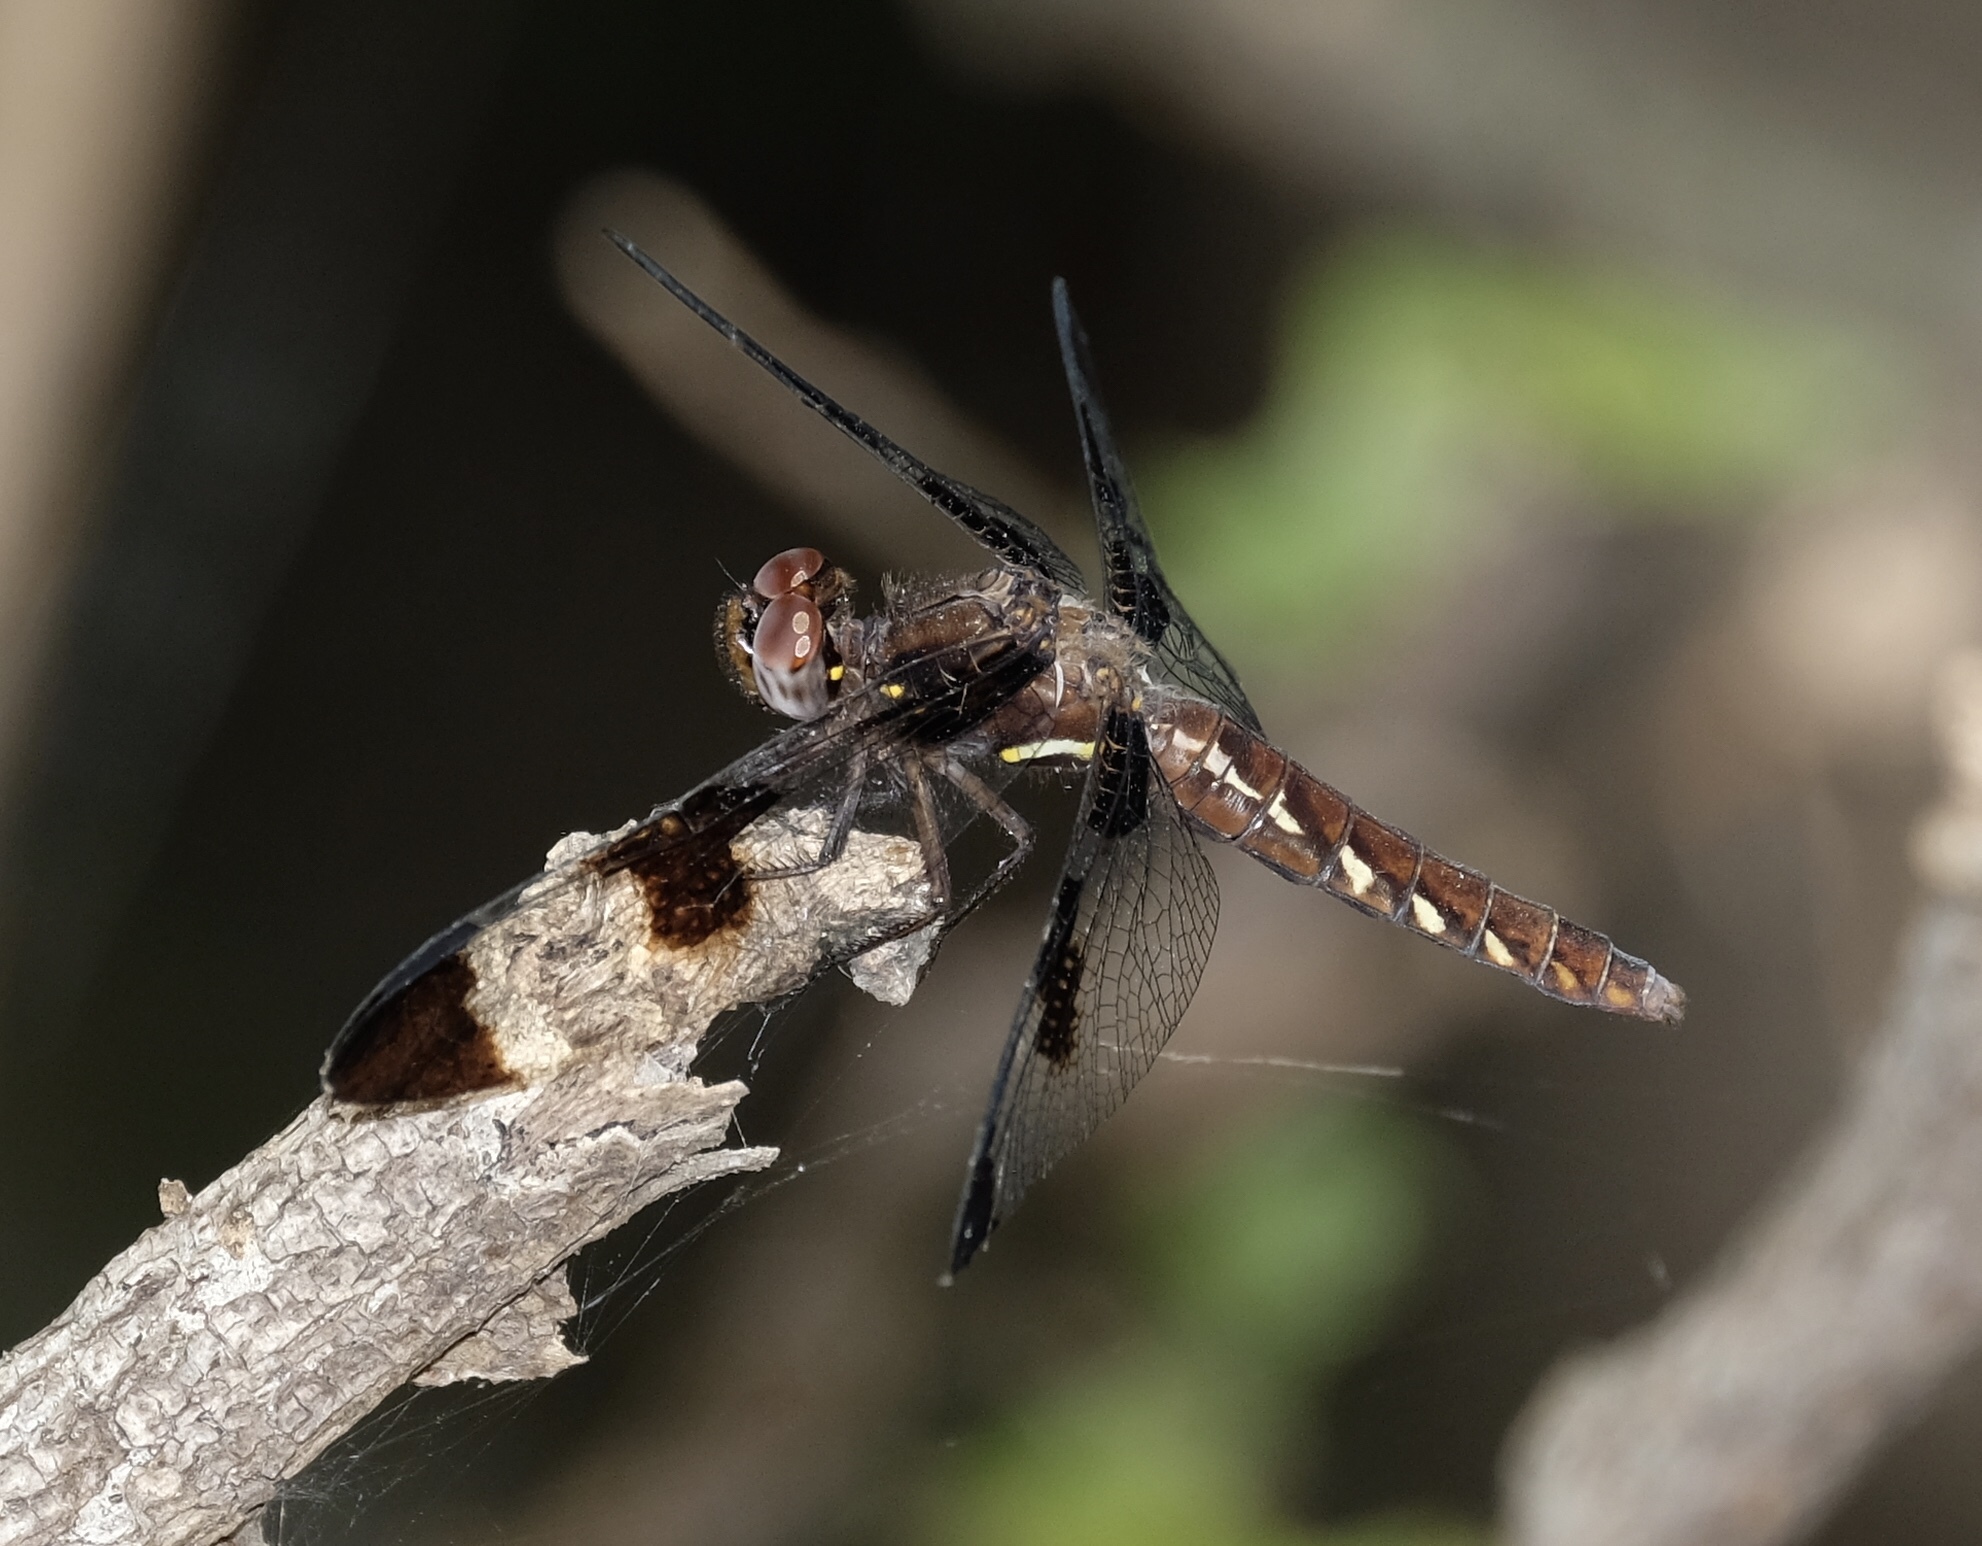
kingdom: Animalia
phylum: Arthropoda
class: Insecta
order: Odonata
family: Libellulidae
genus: Plathemis
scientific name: Plathemis lydia
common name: Common whitetail
